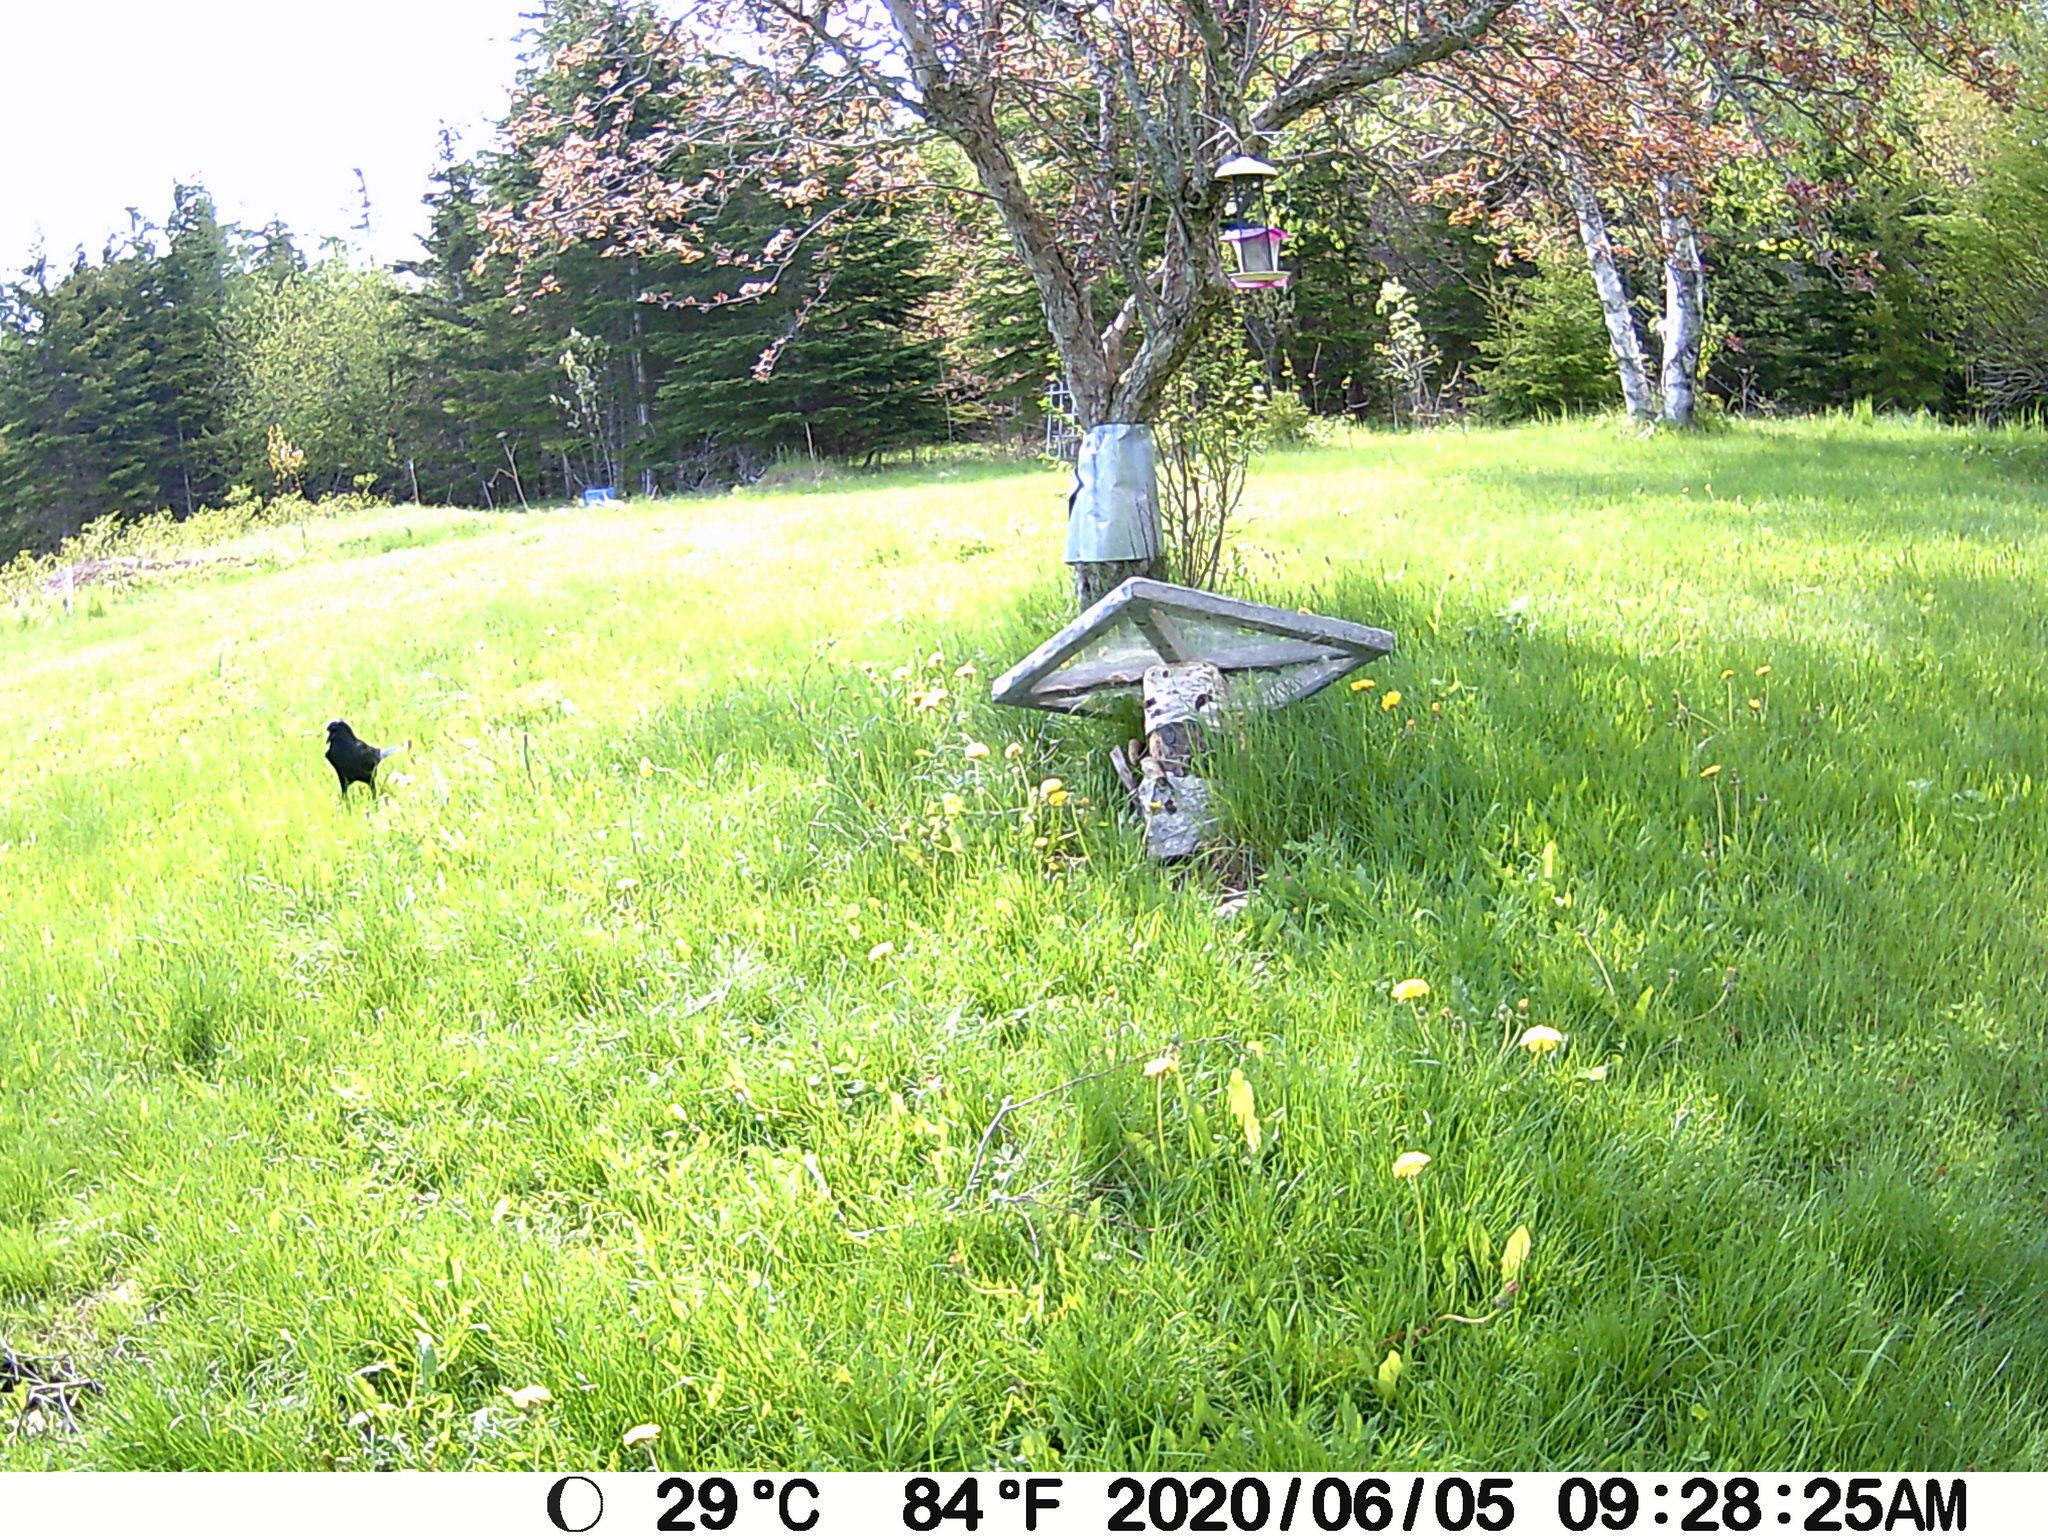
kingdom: Animalia
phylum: Chordata
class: Aves
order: Passeriformes
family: Corvidae
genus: Corvus
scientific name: Corvus brachyrhynchos
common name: American crow
